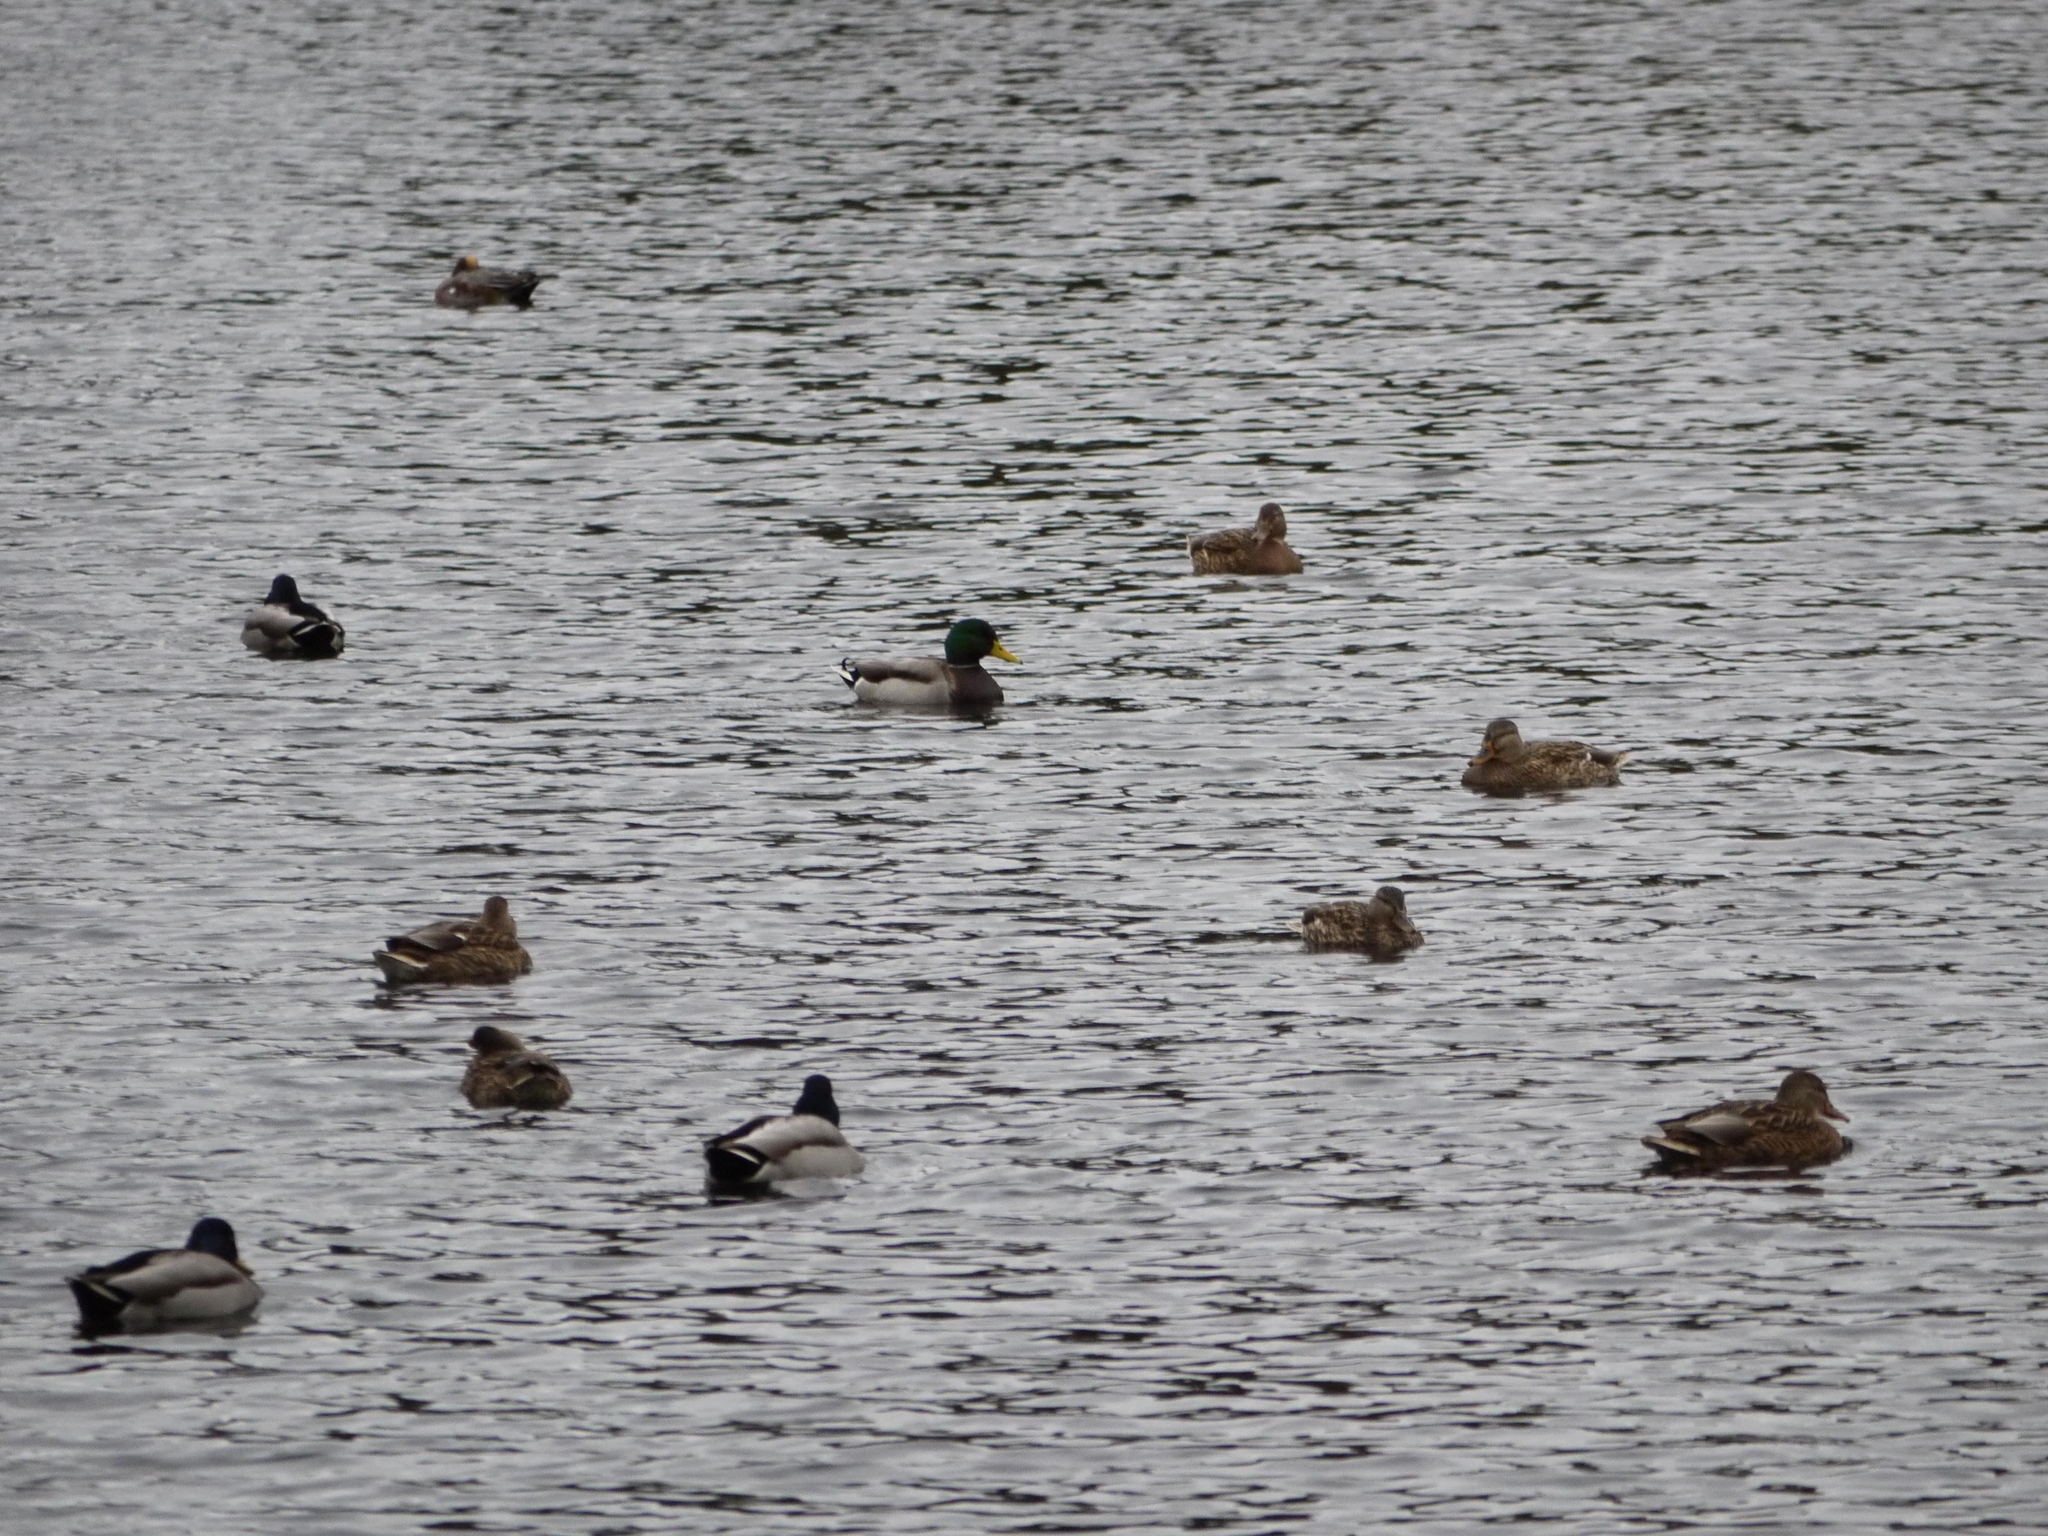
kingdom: Animalia
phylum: Chordata
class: Aves
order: Anseriformes
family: Anatidae
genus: Anas
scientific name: Anas platyrhynchos
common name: Mallard
